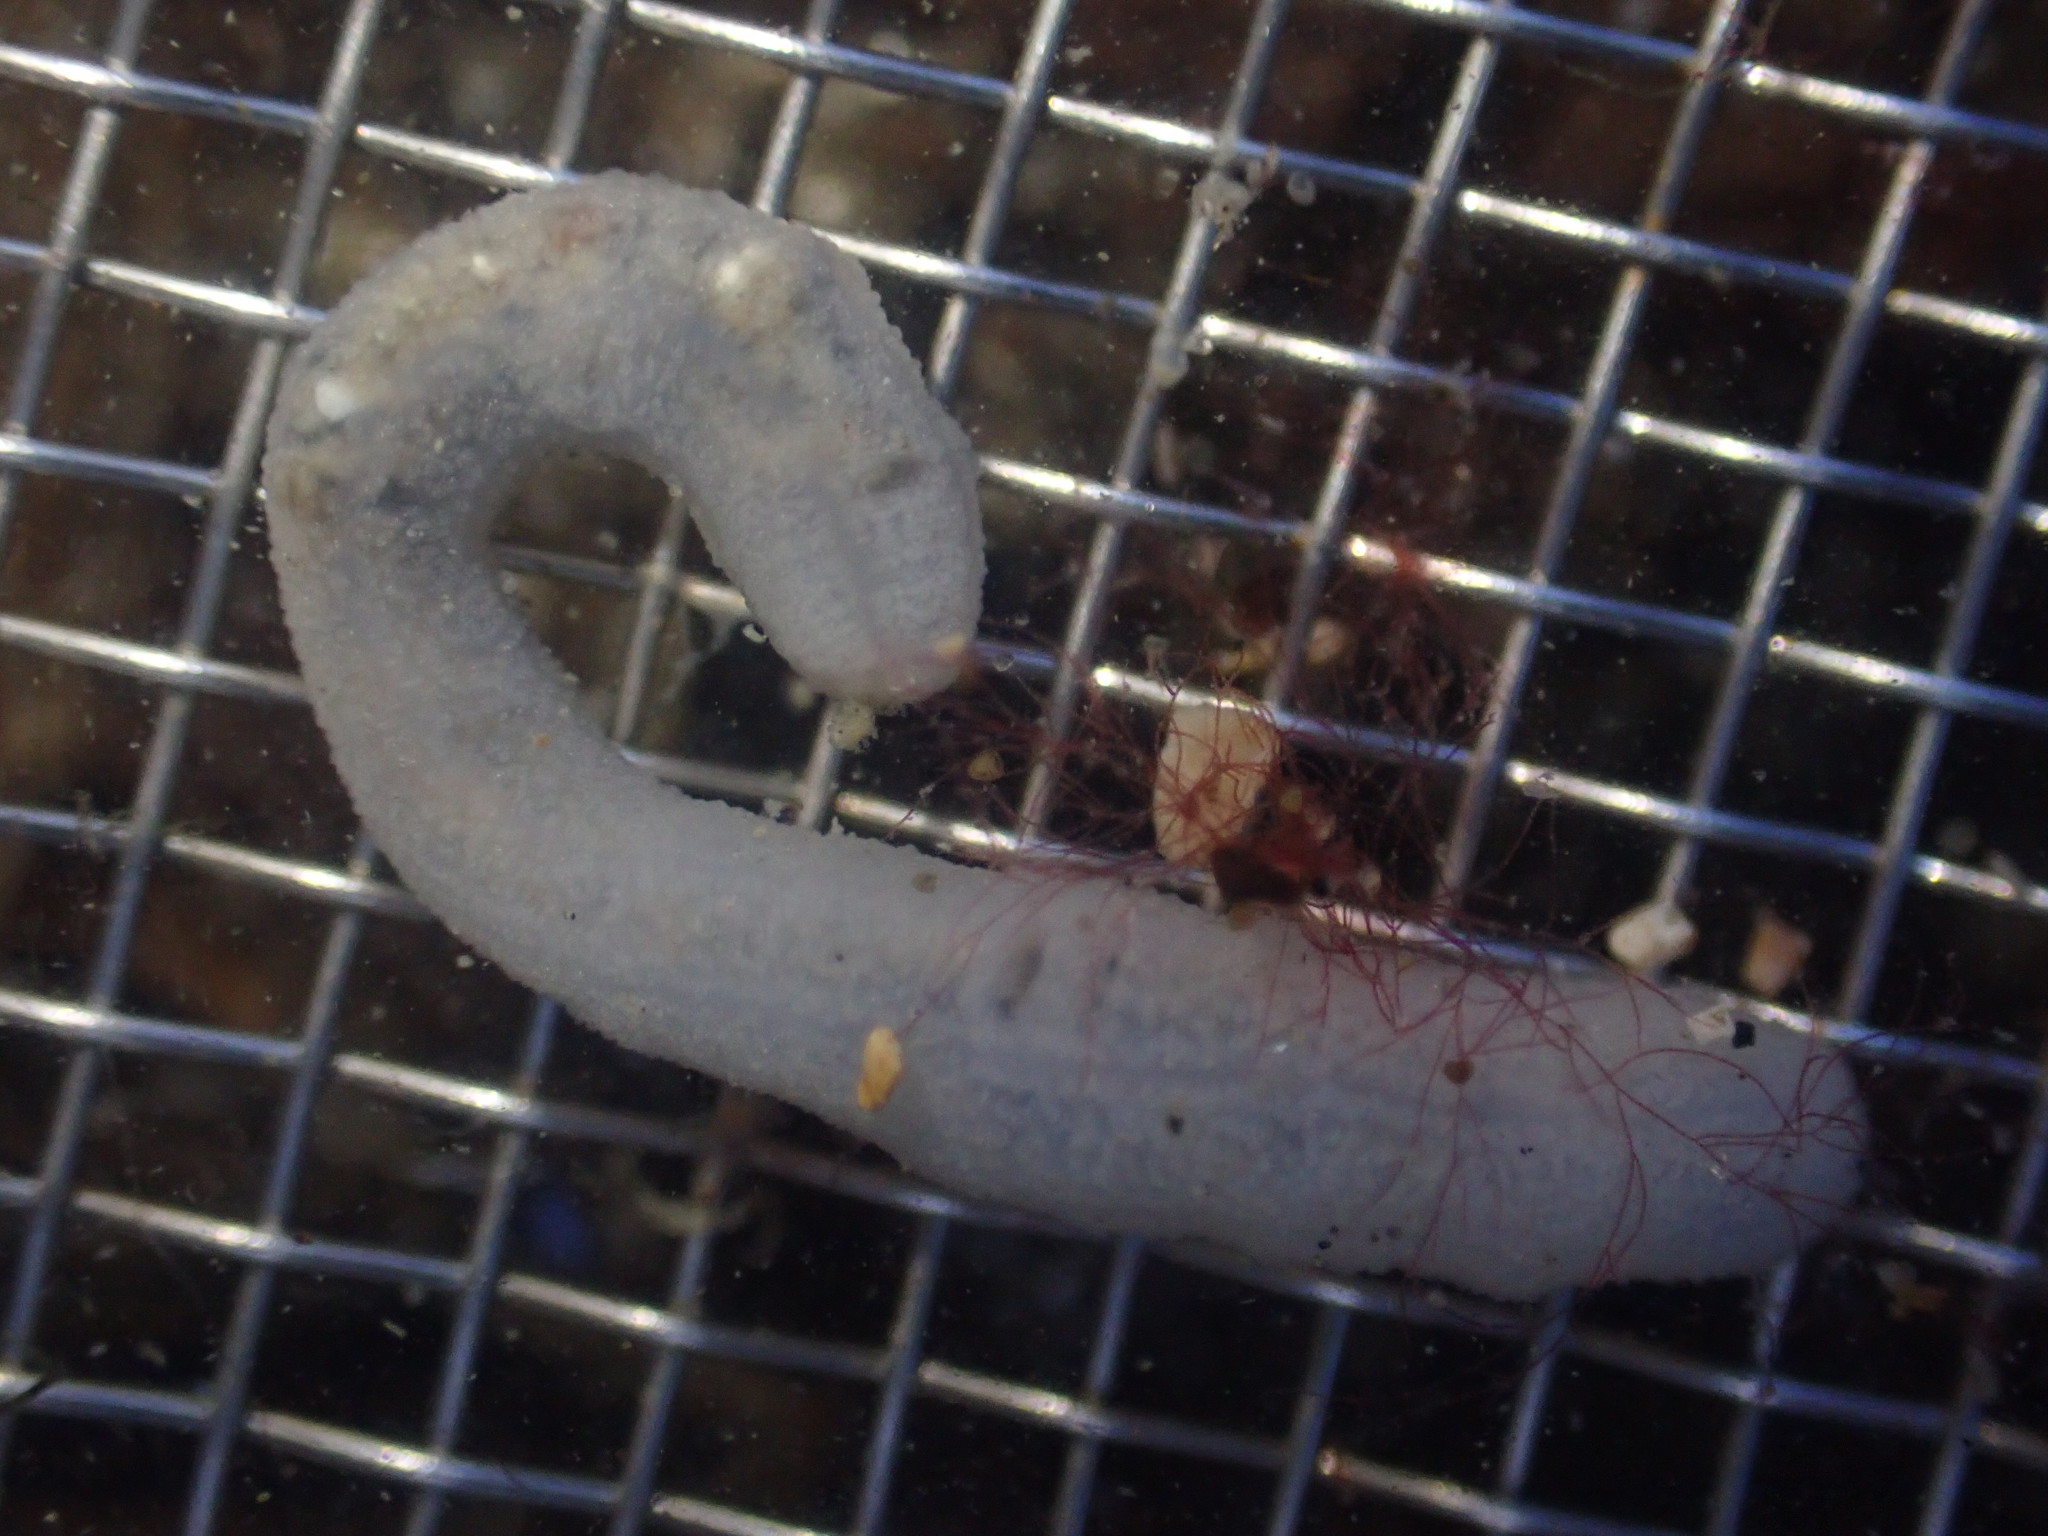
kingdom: Animalia
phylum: Echinodermata
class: Holothuroidea
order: Apodida
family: Chiridotidae
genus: Taeniogyrus
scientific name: Taeniogyrus dendyi
